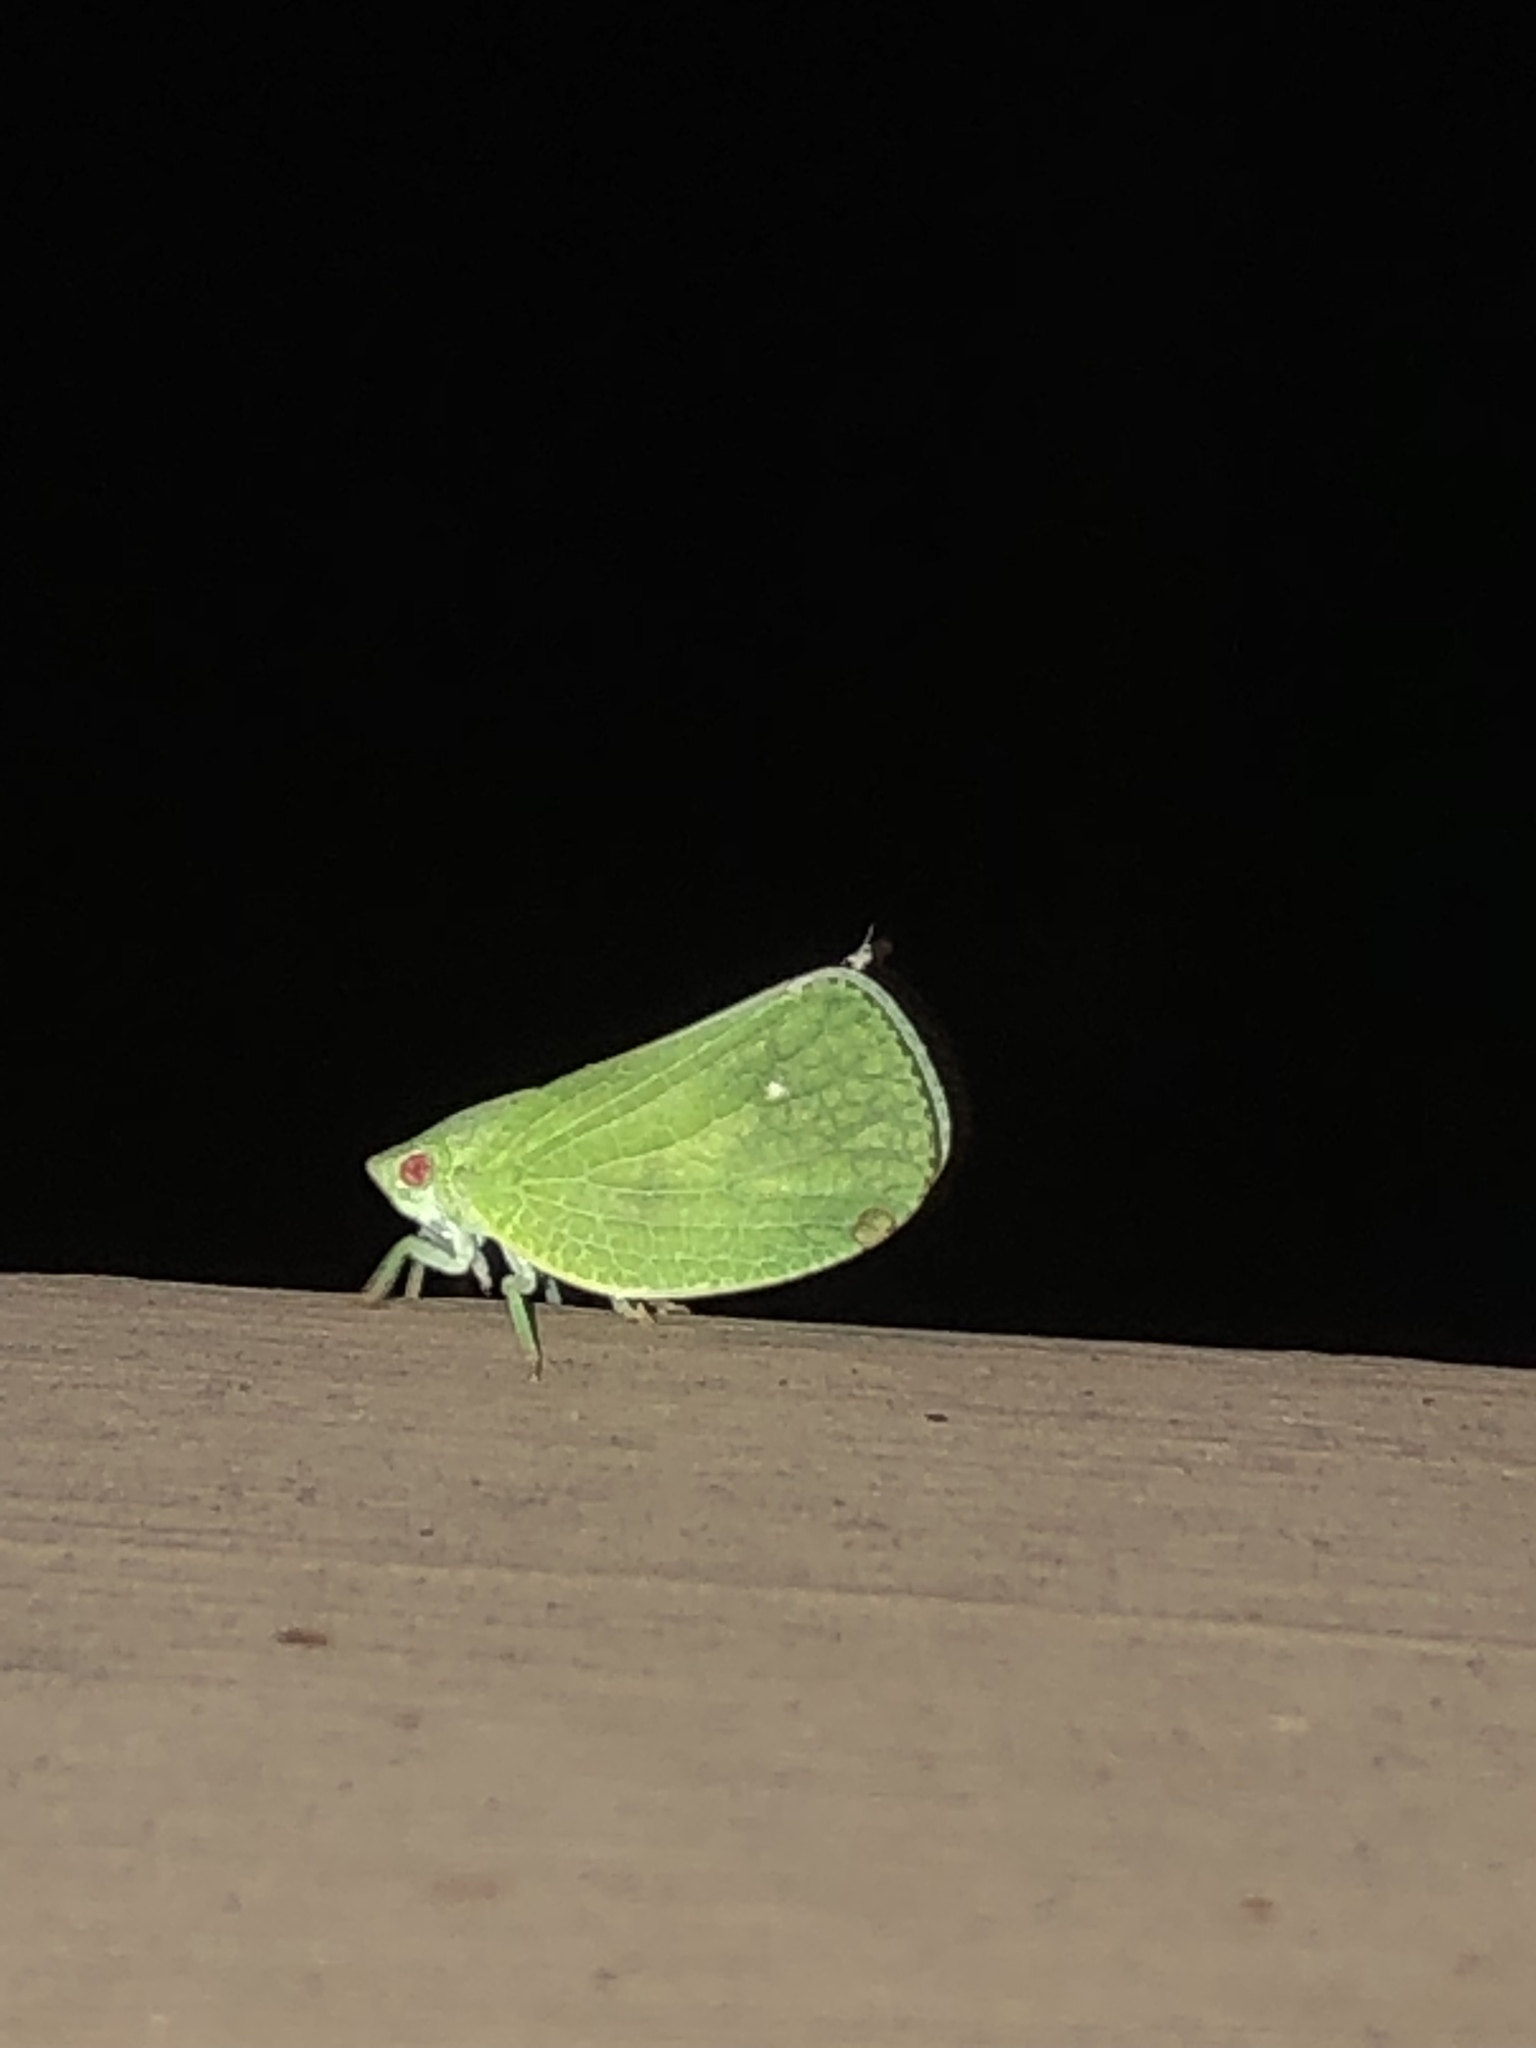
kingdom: Animalia
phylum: Arthropoda
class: Insecta
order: Hemiptera
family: Acanaloniidae
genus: Acanalonia
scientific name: Acanalonia conica
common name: Green cone-headed planthopper
